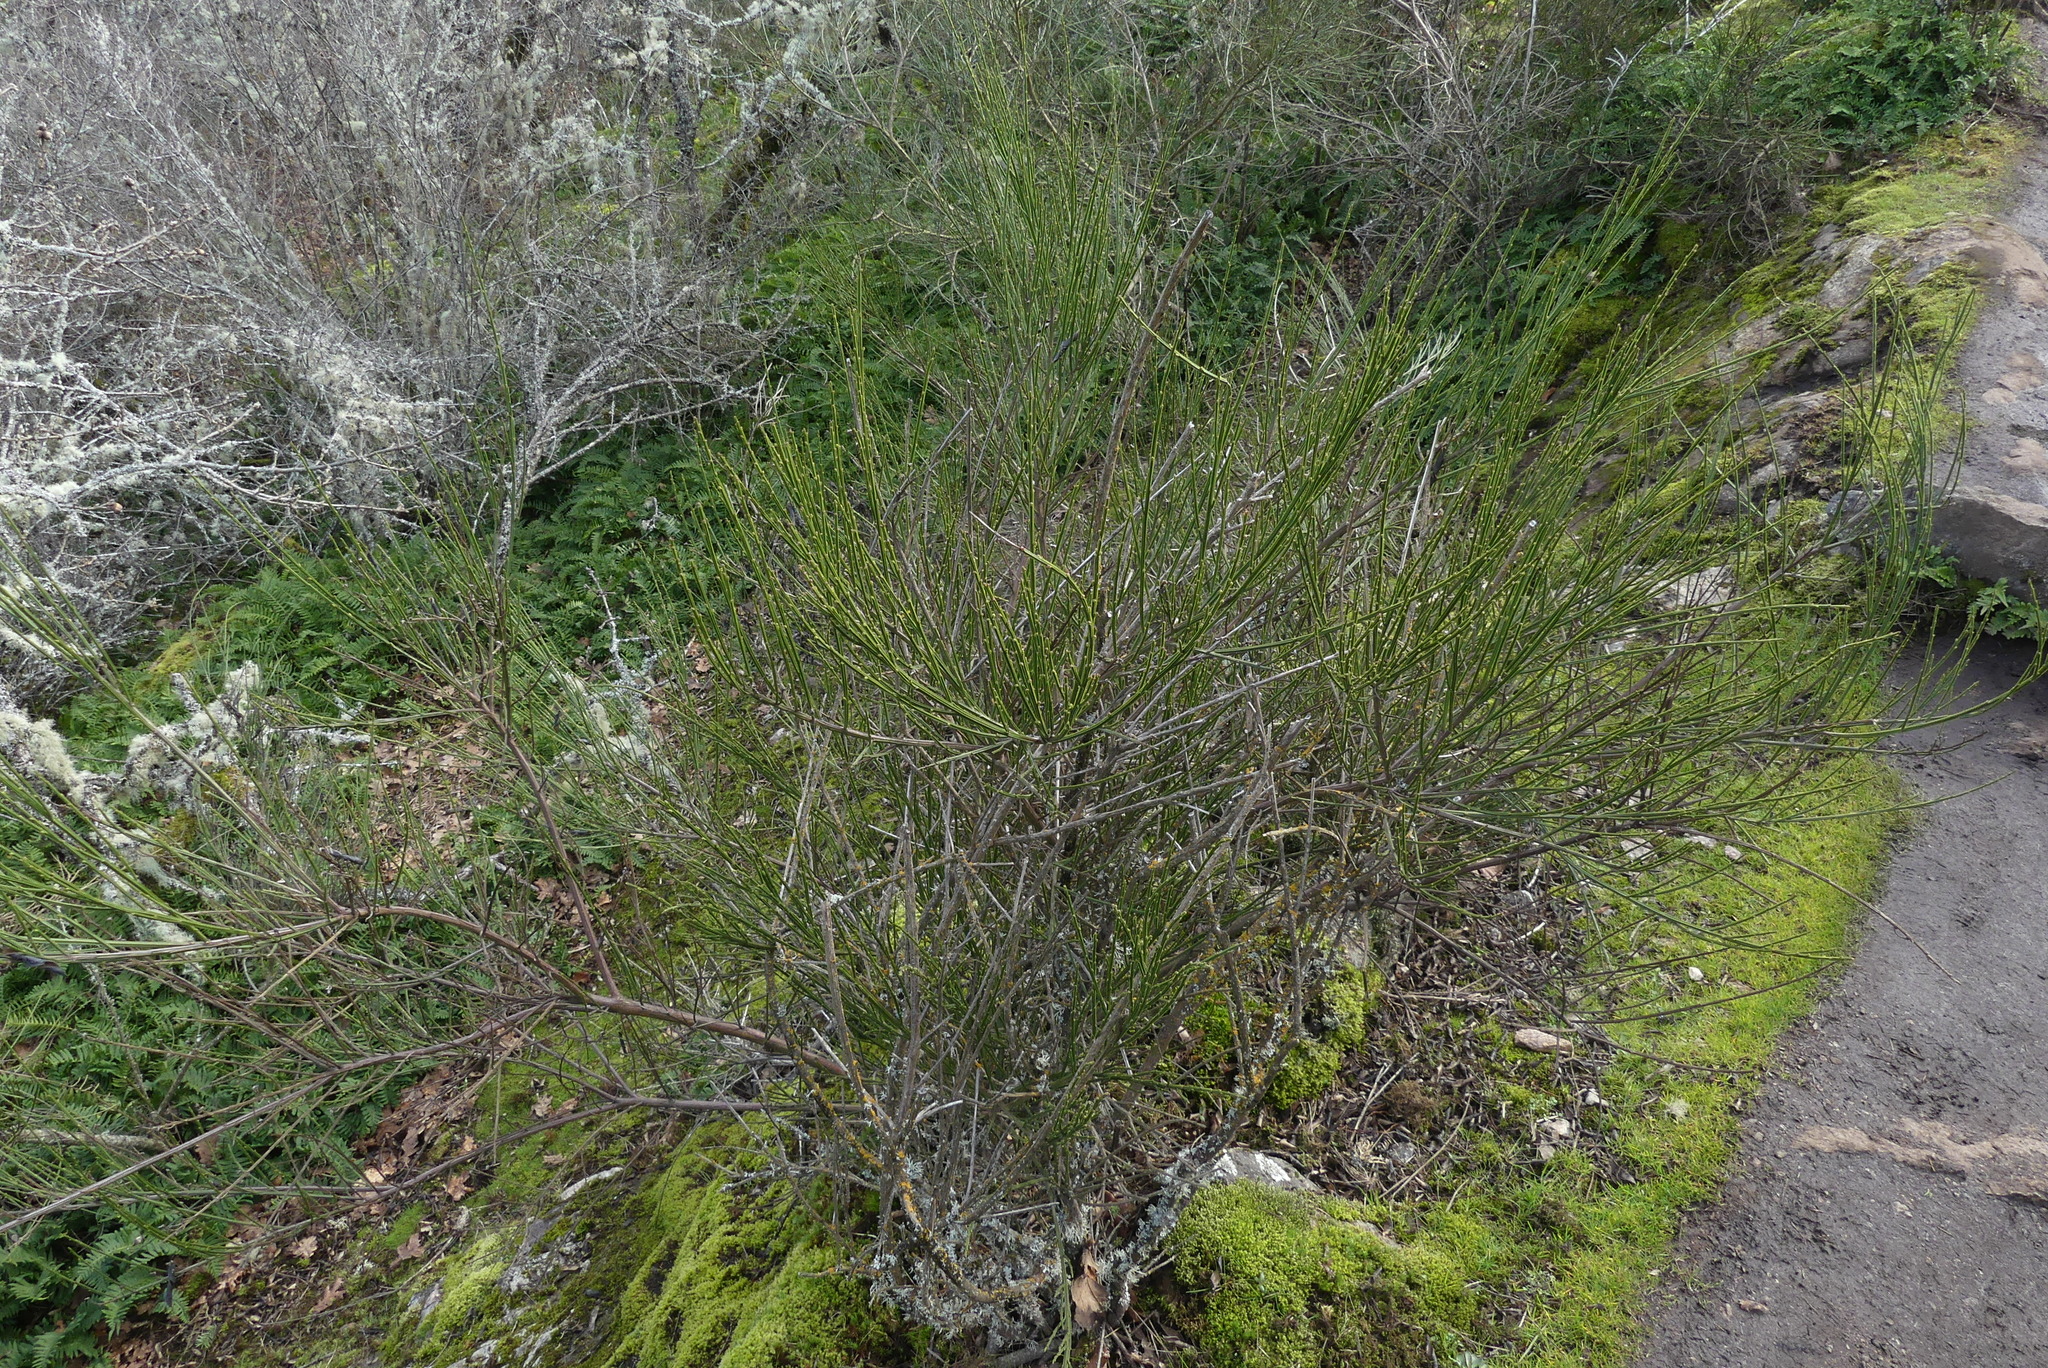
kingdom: Plantae
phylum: Tracheophyta
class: Magnoliopsida
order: Fabales
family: Fabaceae
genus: Cytisus
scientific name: Cytisus scoparius
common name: Scotch broom
